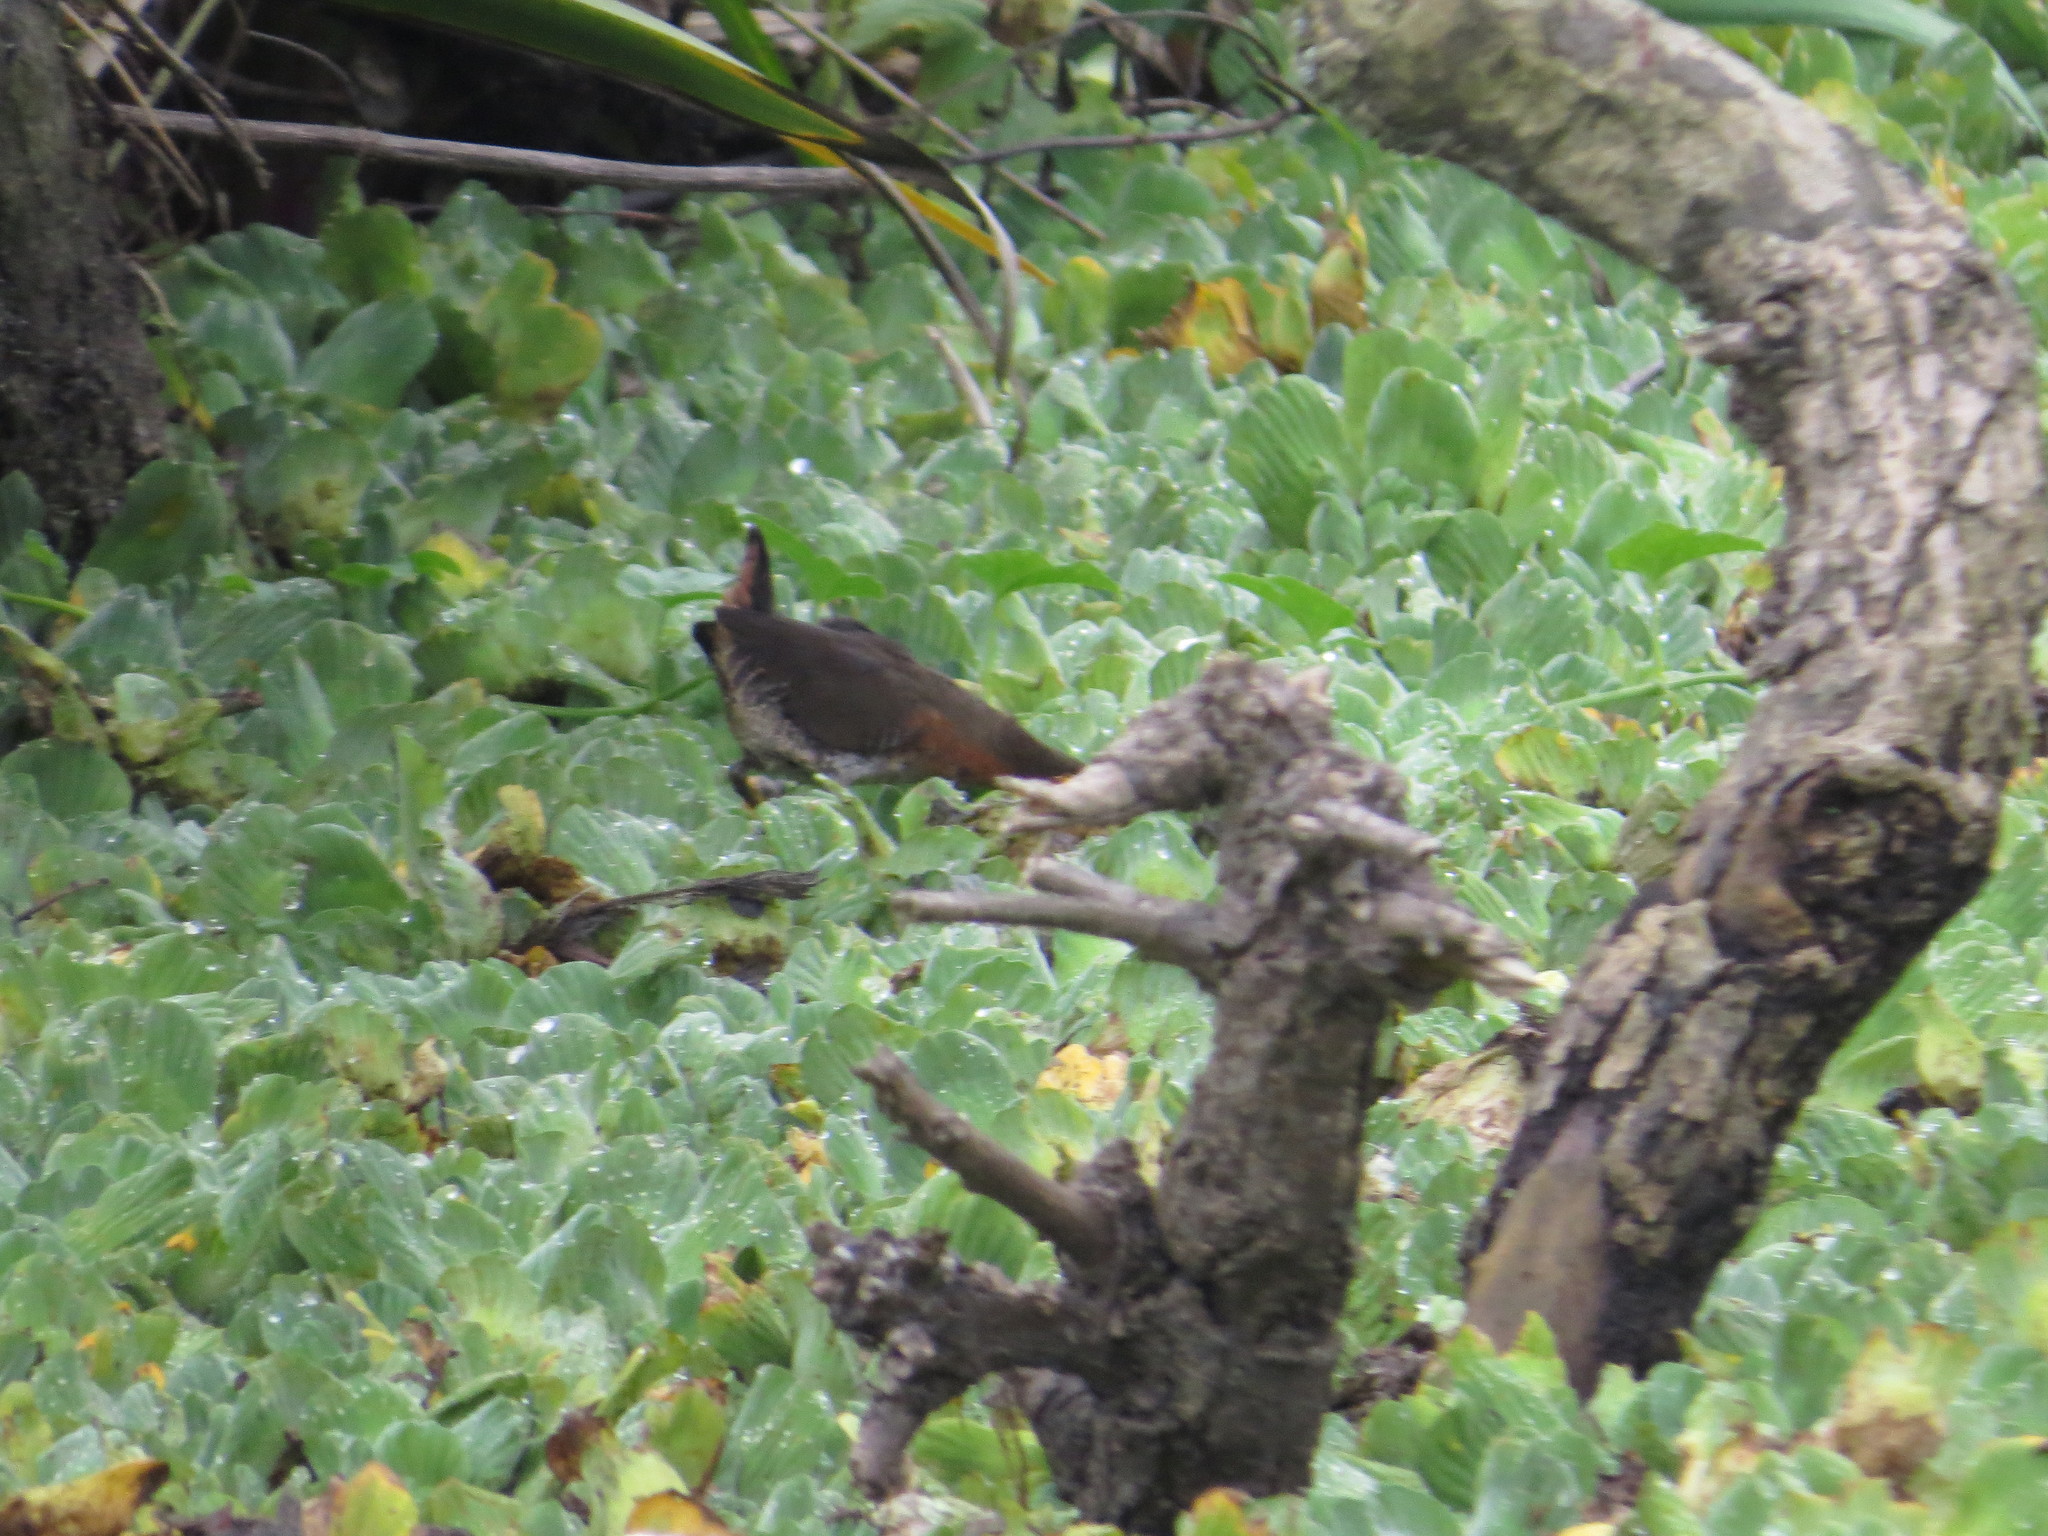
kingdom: Animalia
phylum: Chordata
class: Aves
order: Gruiformes
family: Rallidae
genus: Laterallus
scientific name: Laterallus melanophaius
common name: Rufous-sided crake
